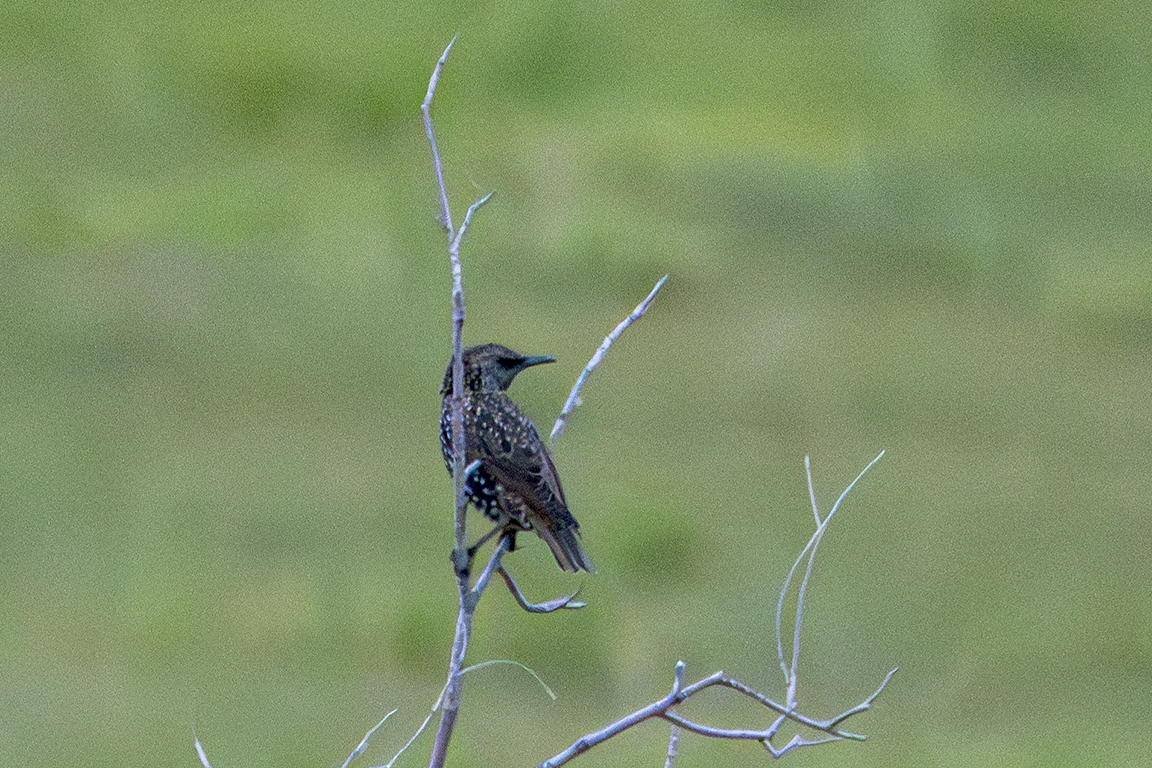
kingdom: Animalia
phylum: Chordata
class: Aves
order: Passeriformes
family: Sturnidae
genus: Sturnus
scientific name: Sturnus vulgaris
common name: Common starling
